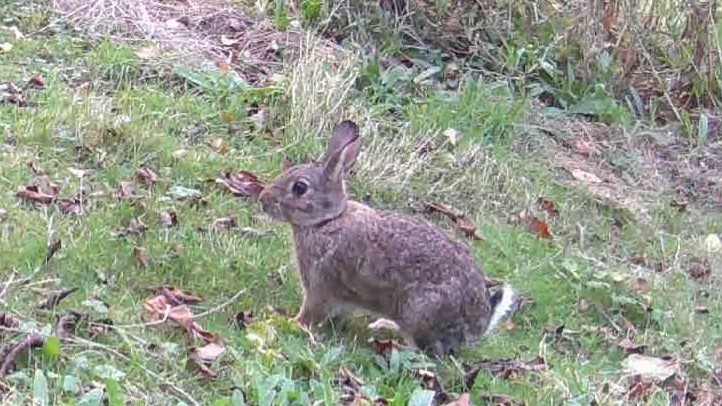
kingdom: Animalia
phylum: Chordata
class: Mammalia
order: Lagomorpha
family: Leporidae
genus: Oryctolagus
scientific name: Oryctolagus cuniculus
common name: European rabbit
